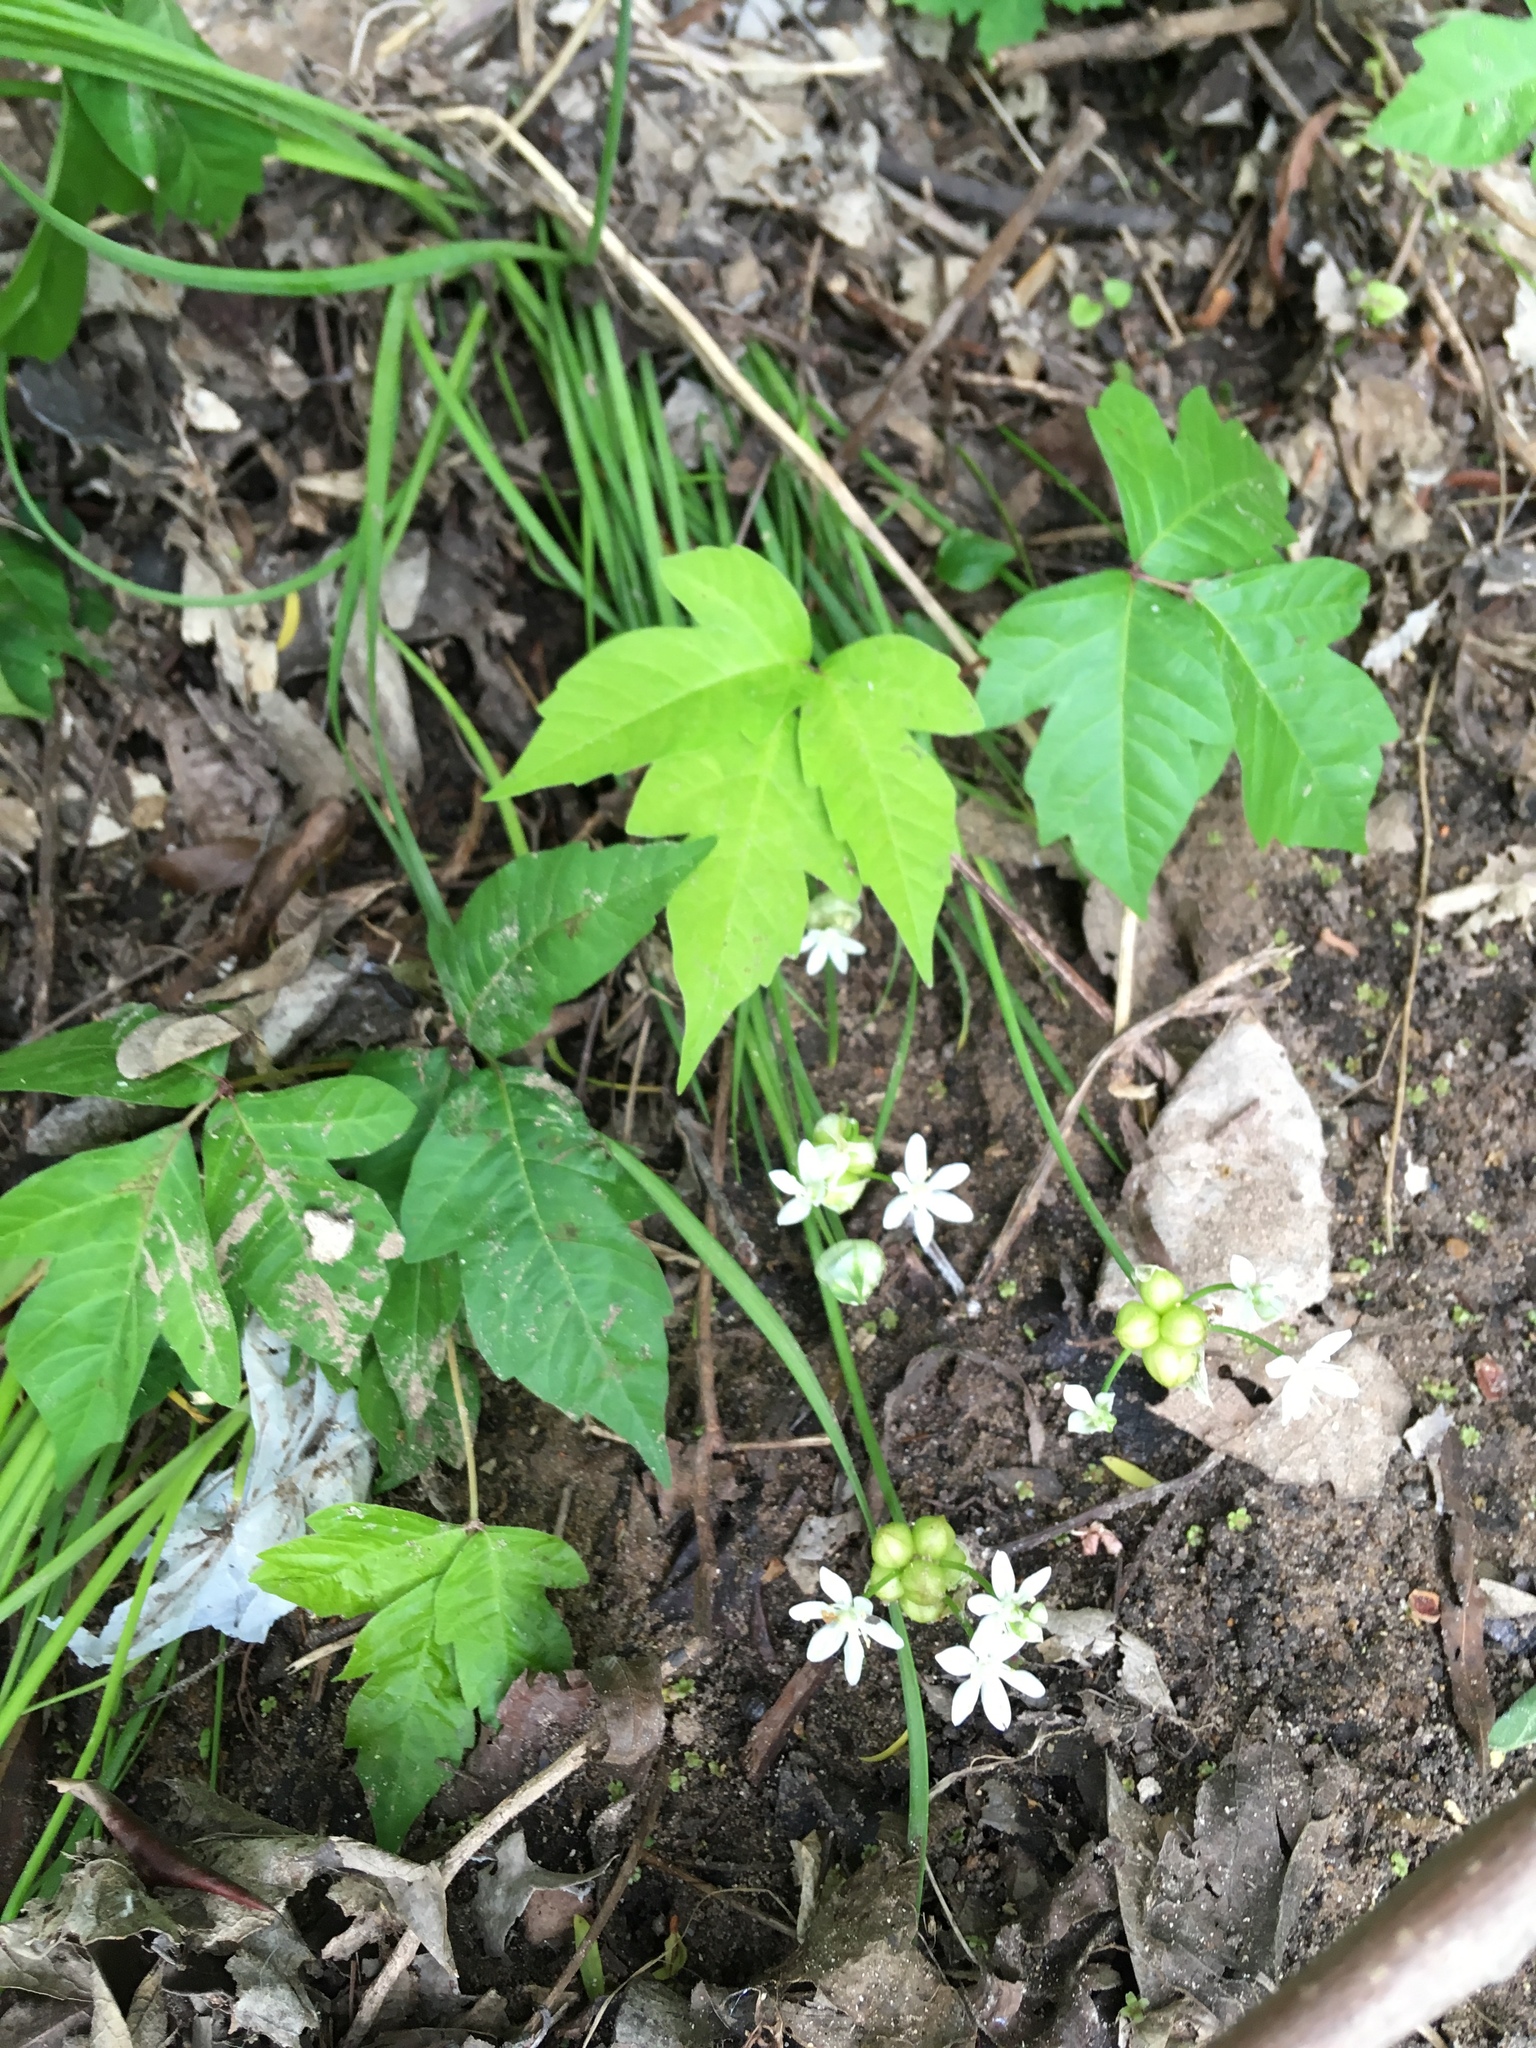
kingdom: Plantae
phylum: Tracheophyta
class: Liliopsida
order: Asparagales
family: Amaryllidaceae
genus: Allium
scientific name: Allium canadense
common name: Meadow garlic
